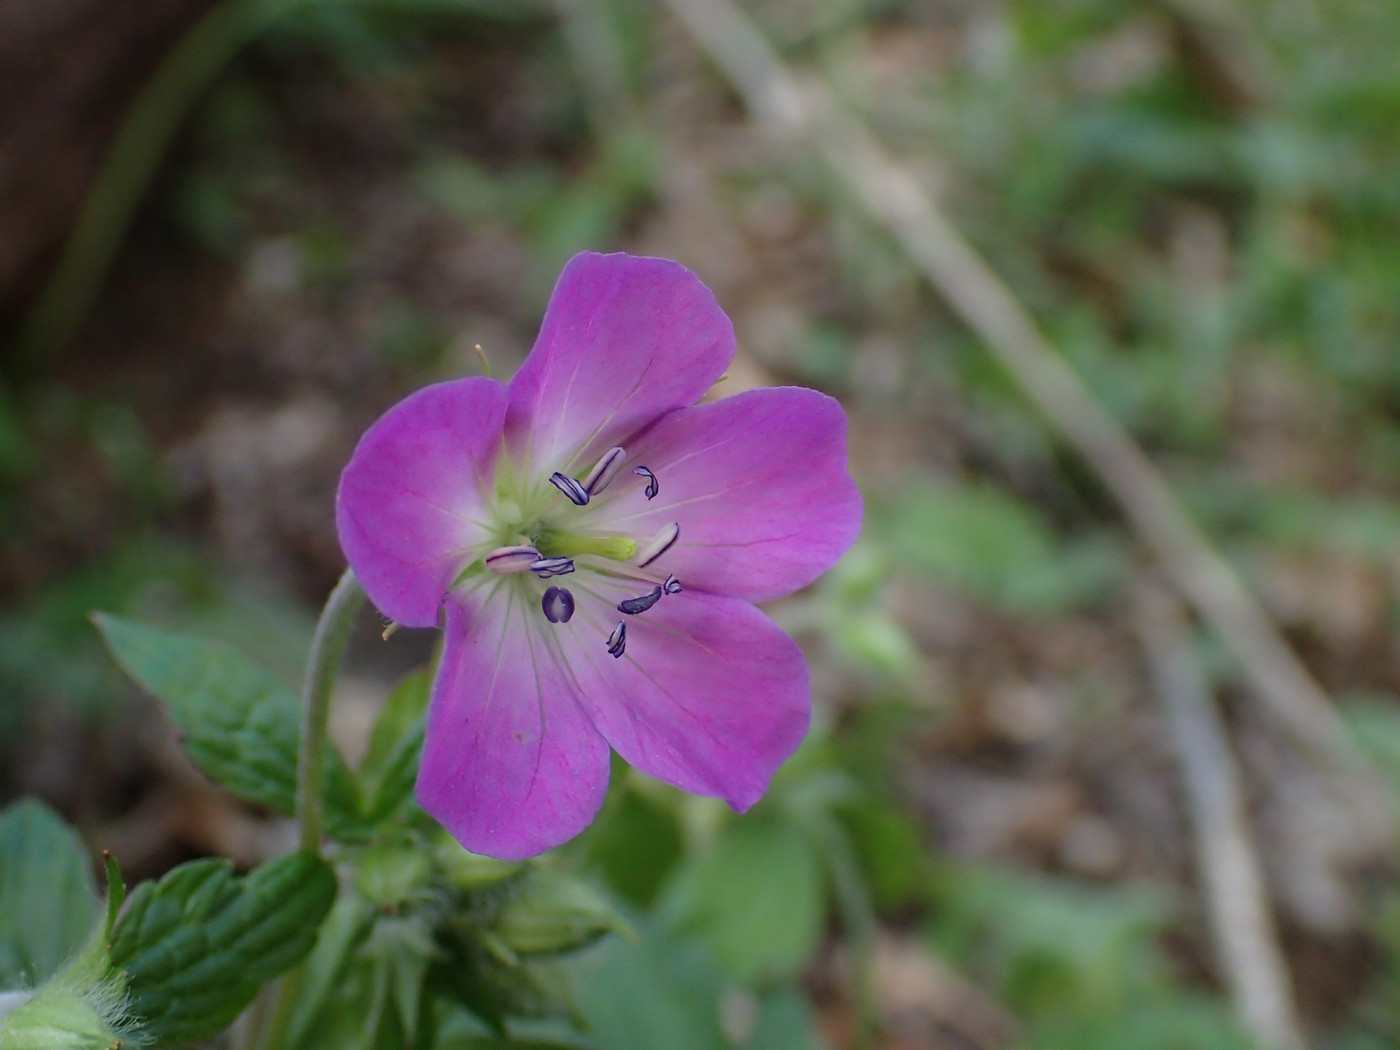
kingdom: Plantae
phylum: Tracheophyta
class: Magnoliopsida
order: Geraniales
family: Geraniaceae
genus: Geranium
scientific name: Geranium maculatum
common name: Spotted geranium
